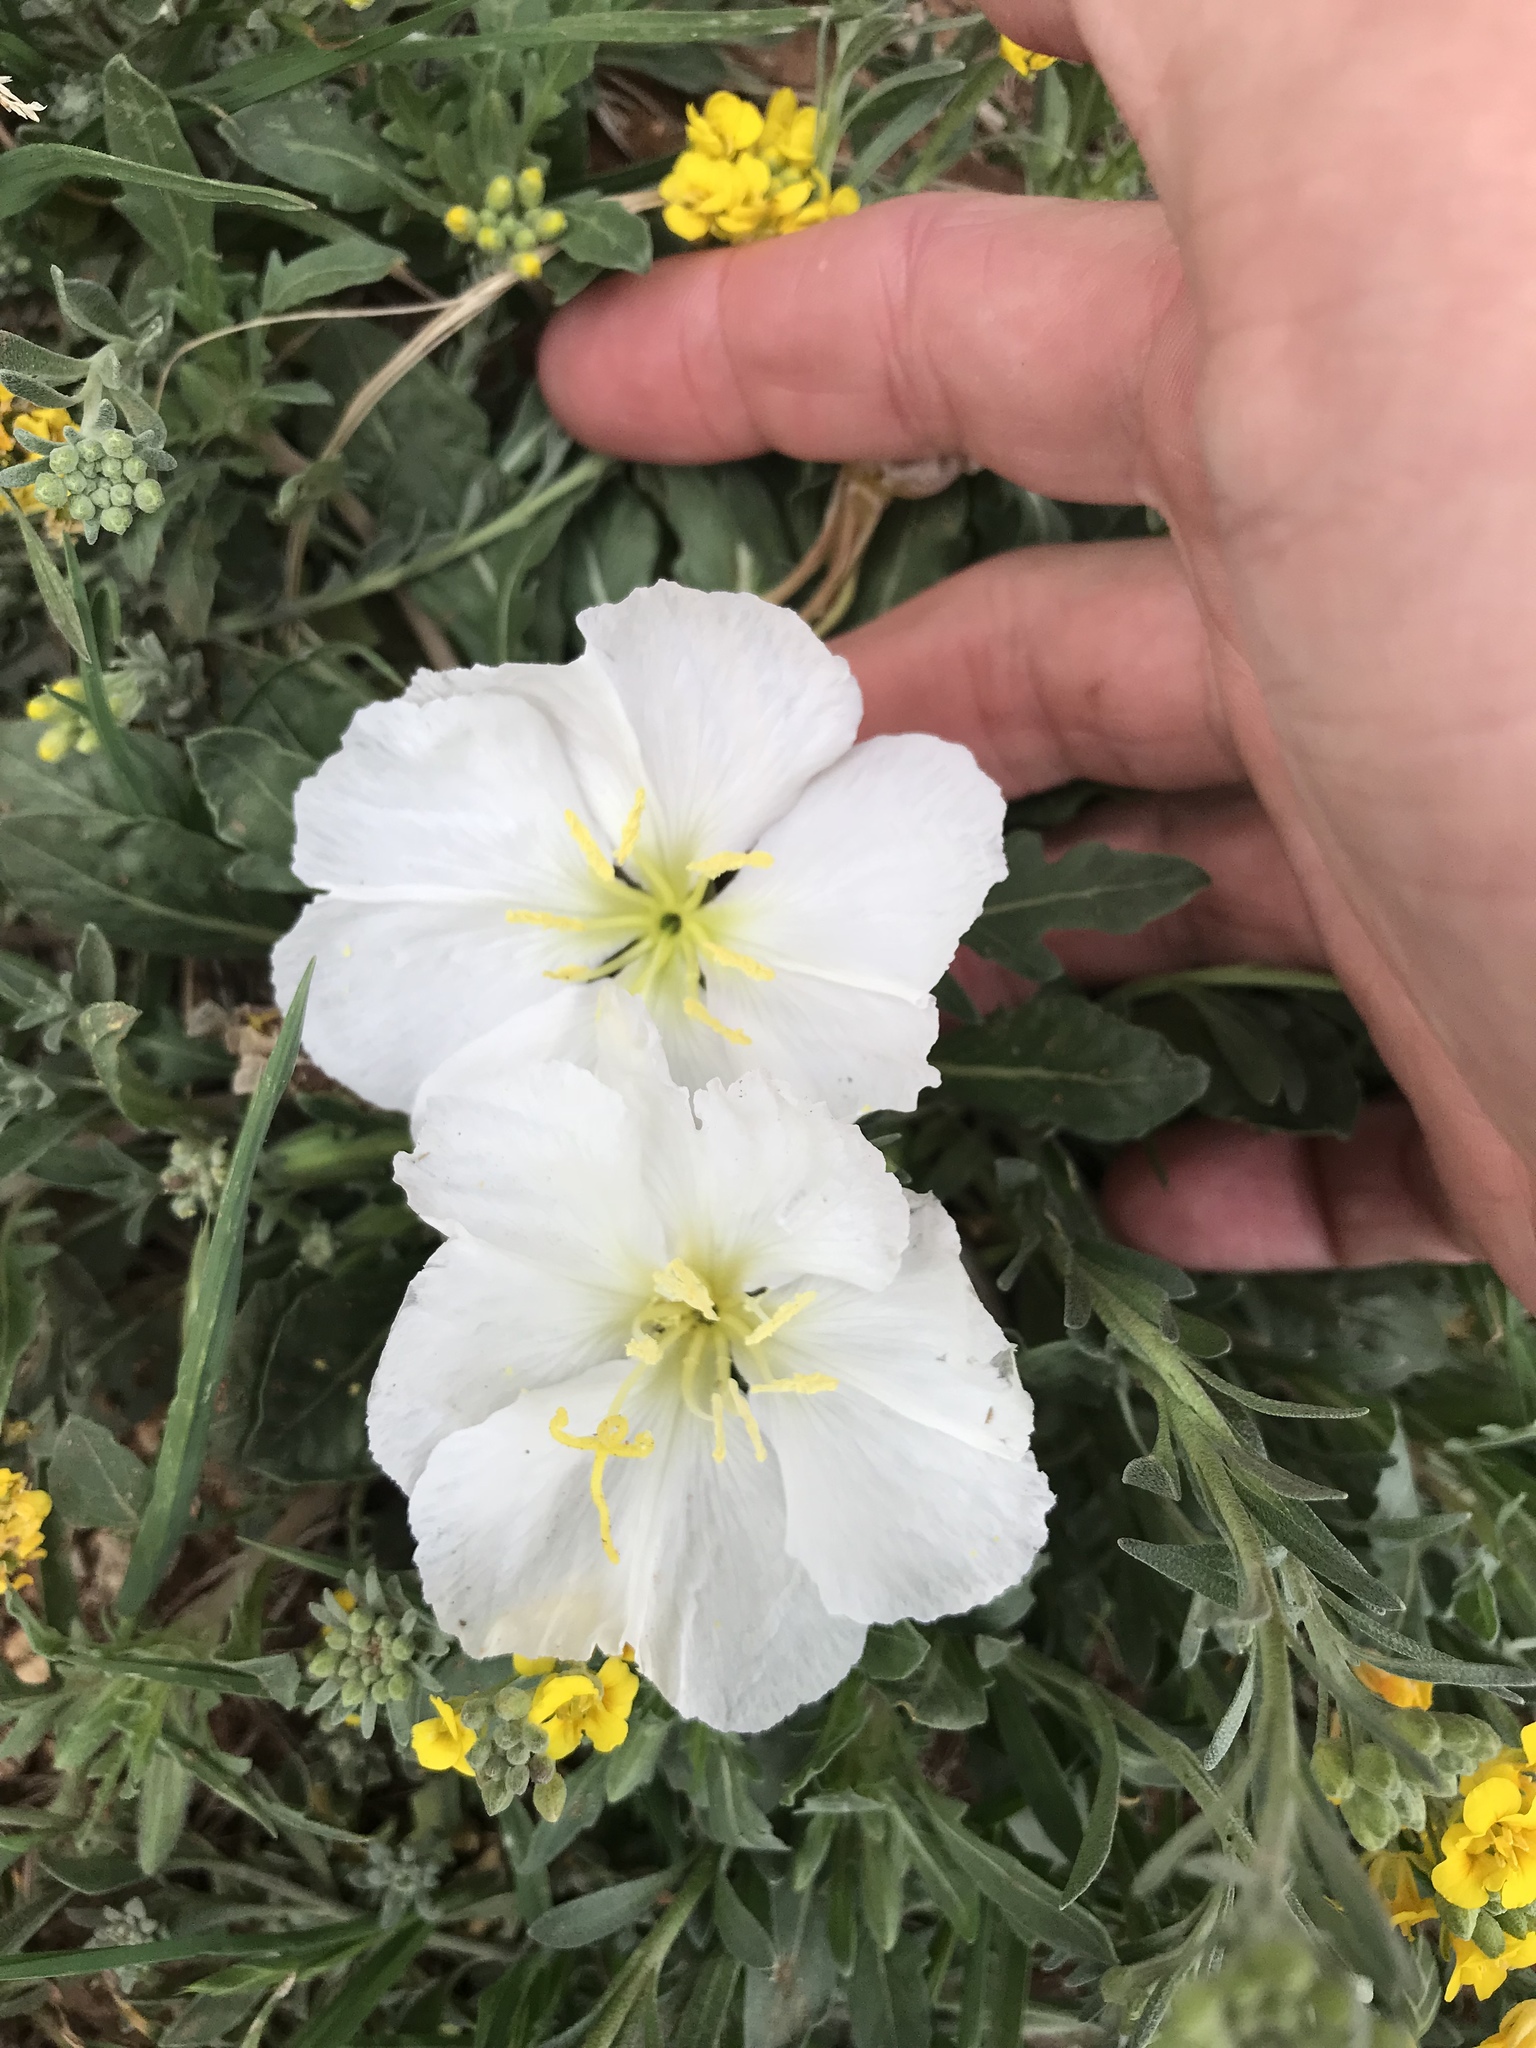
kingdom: Plantae
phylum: Tracheophyta
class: Magnoliopsida
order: Myrtales
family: Onagraceae
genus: Oenothera
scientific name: Oenothera albicaulis
